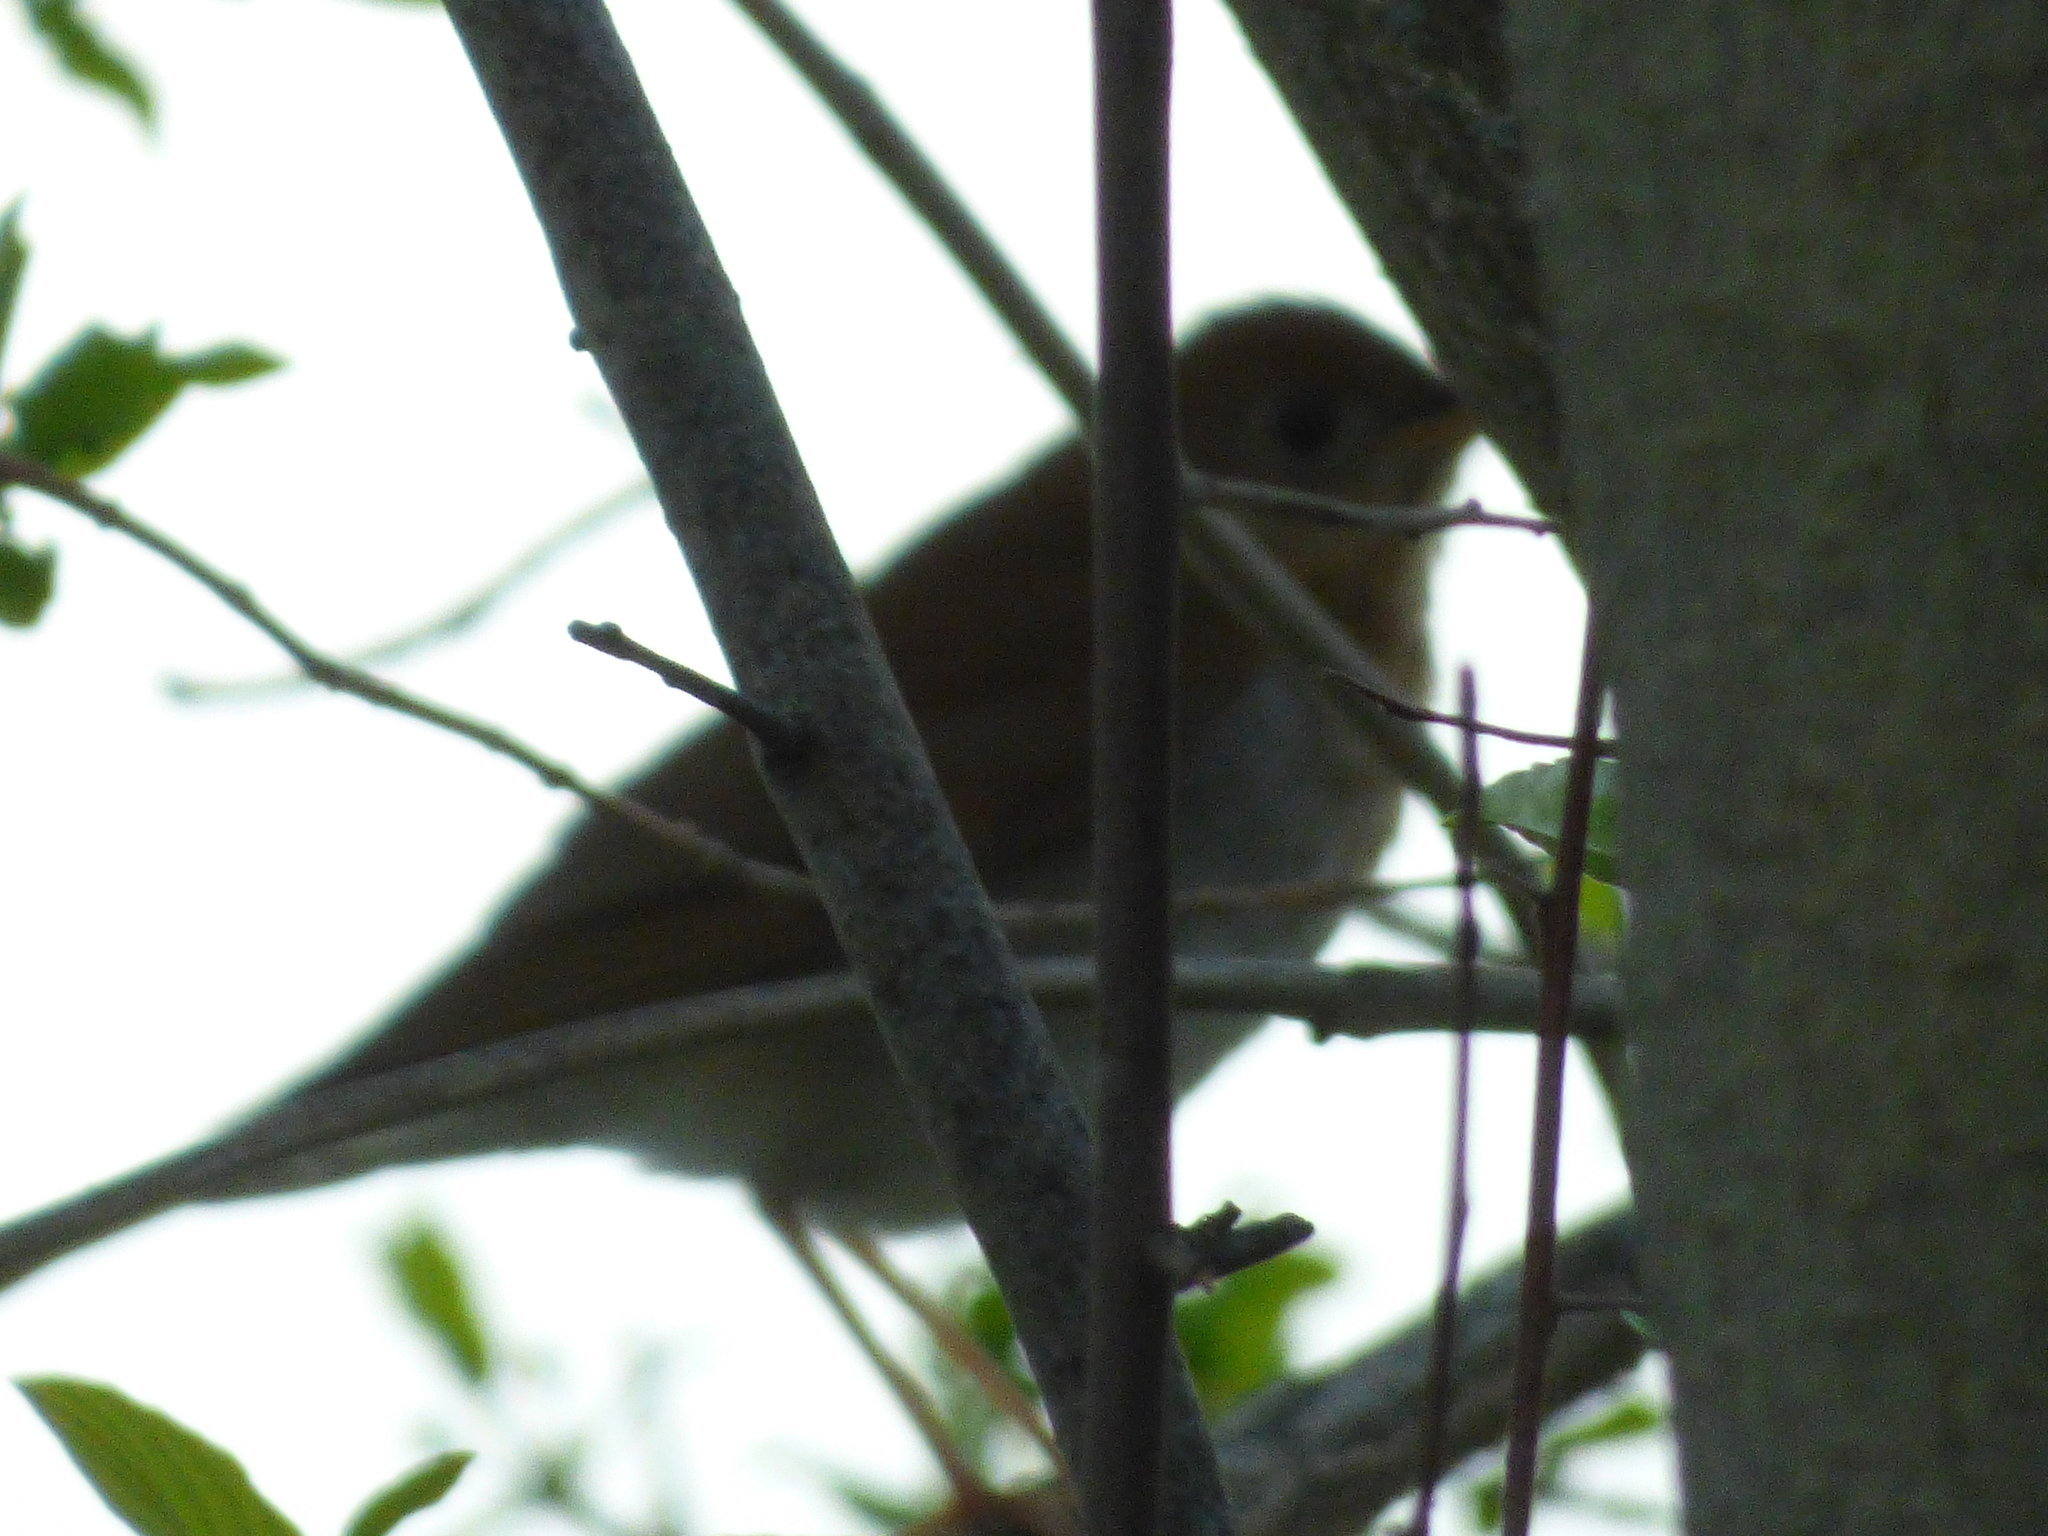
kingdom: Animalia
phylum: Chordata
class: Aves
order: Passeriformes
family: Turdidae
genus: Catharus
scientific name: Catharus fuscescens
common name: Veery
